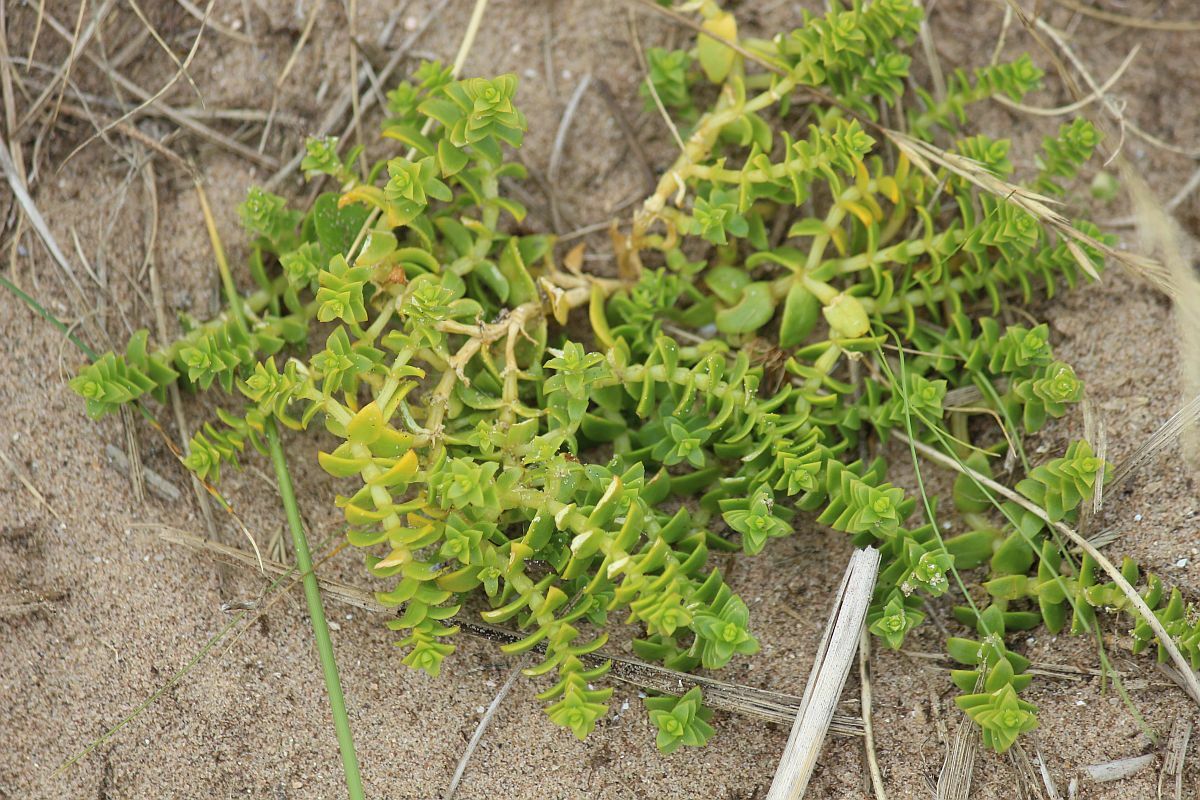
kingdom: Plantae
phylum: Tracheophyta
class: Magnoliopsida
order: Caryophyllales
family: Caryophyllaceae
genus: Honckenya
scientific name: Honckenya peploides
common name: Sea sandwort
